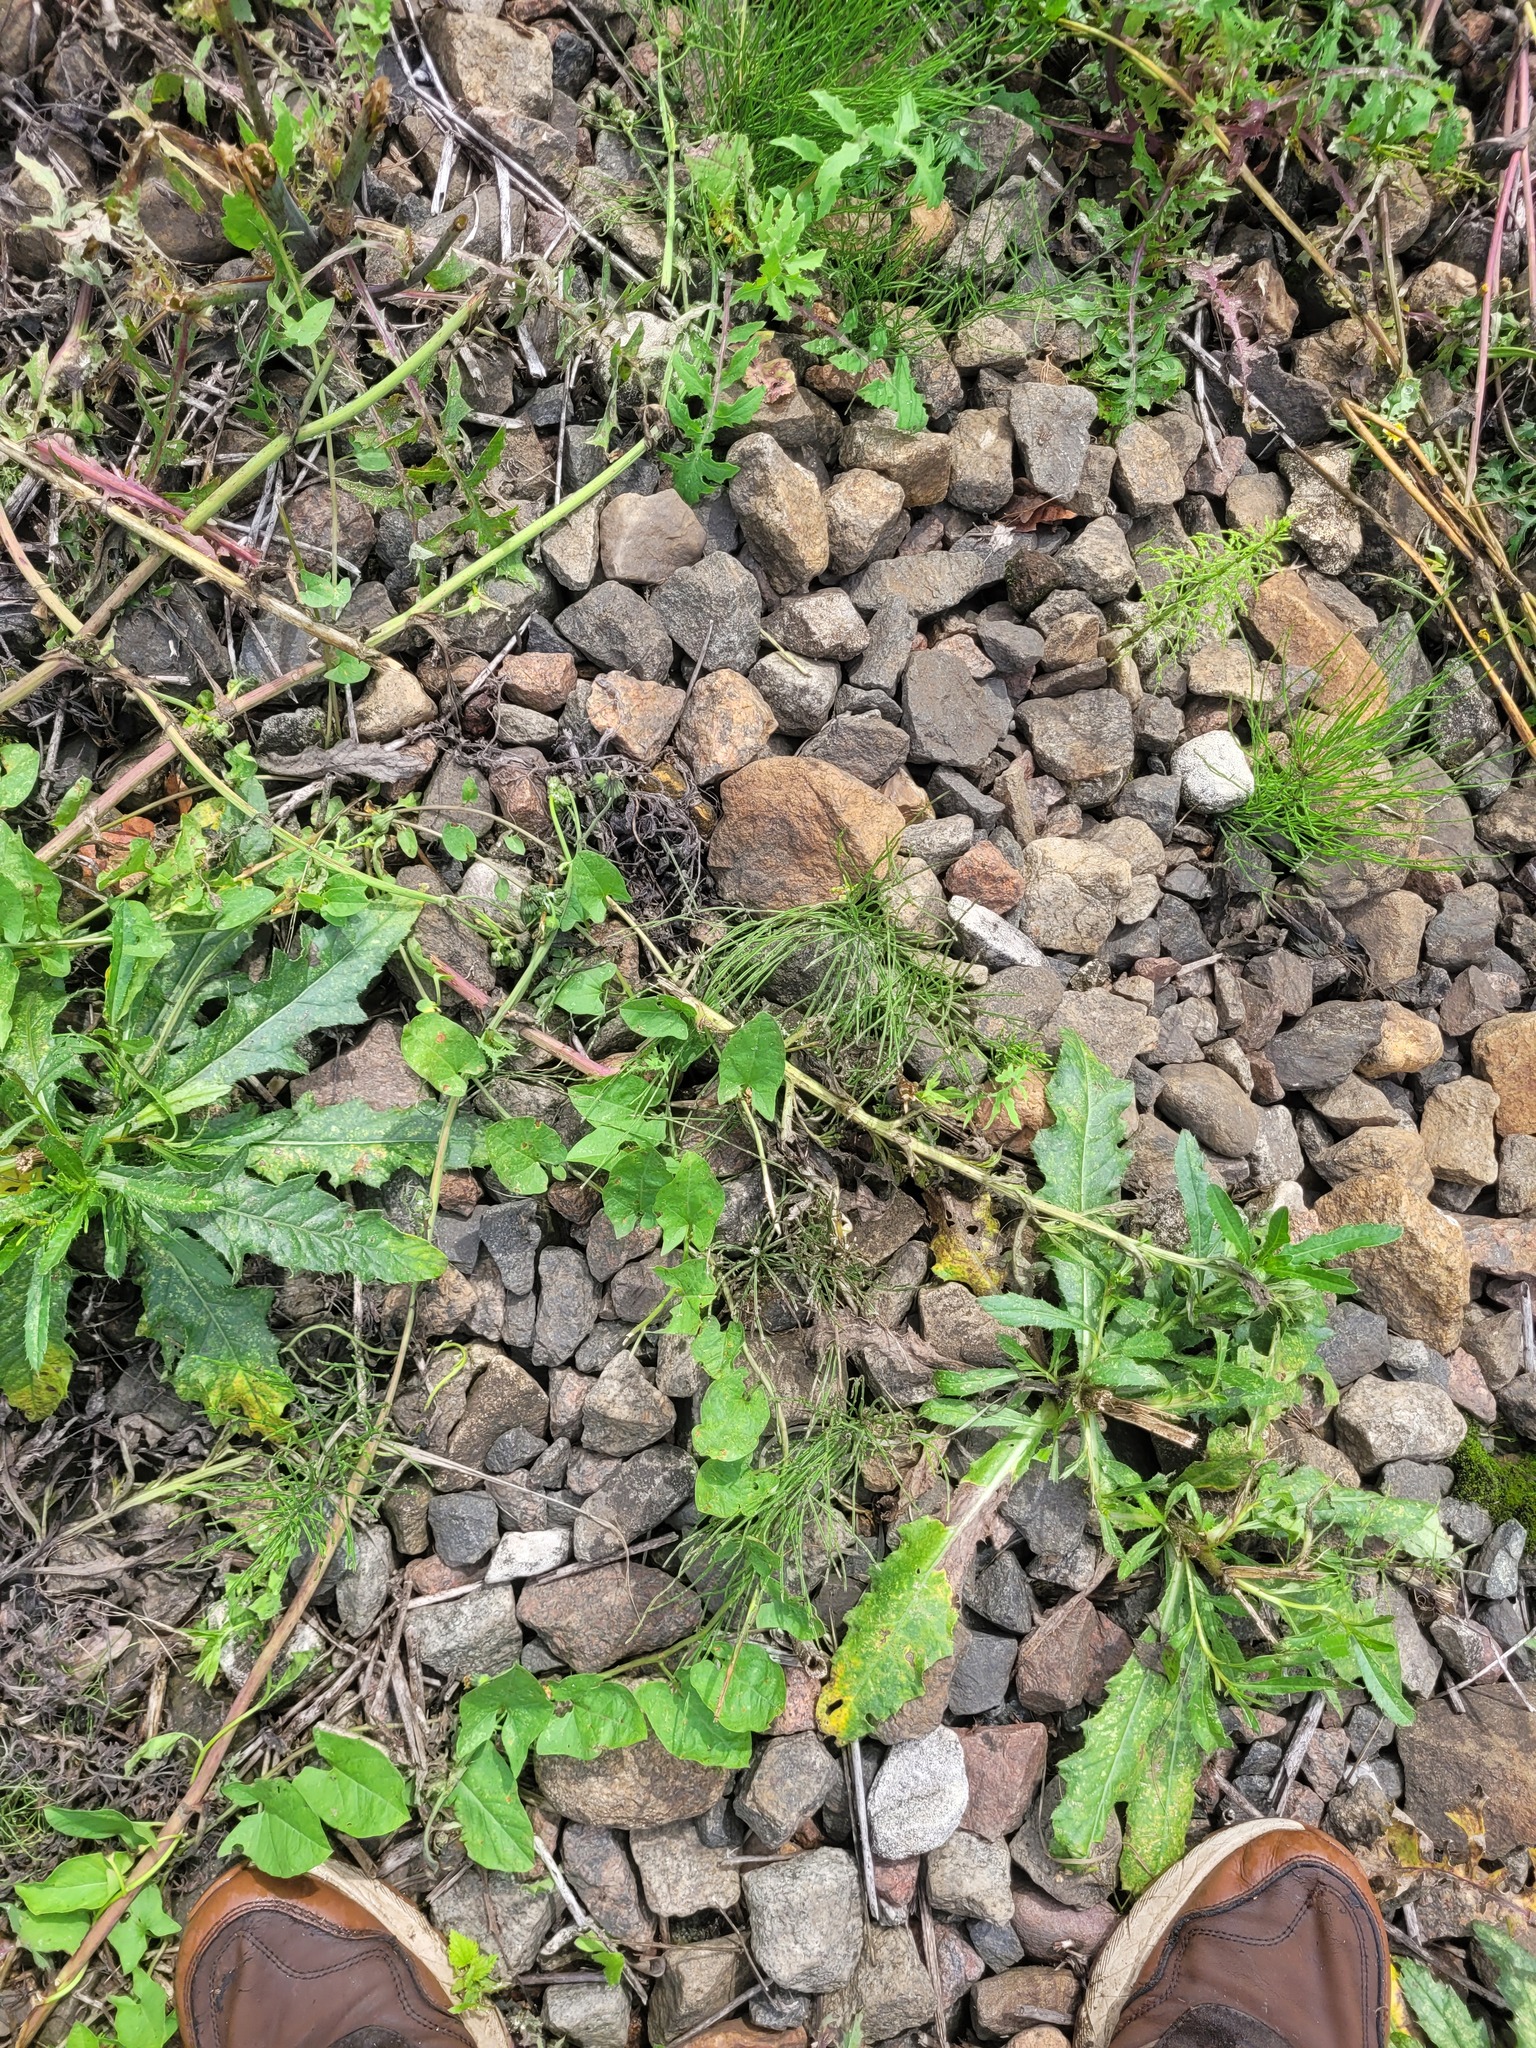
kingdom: Plantae
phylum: Tracheophyta
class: Magnoliopsida
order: Solanales
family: Convolvulaceae
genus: Convolvulus
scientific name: Convolvulus arvensis
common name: Field bindweed
